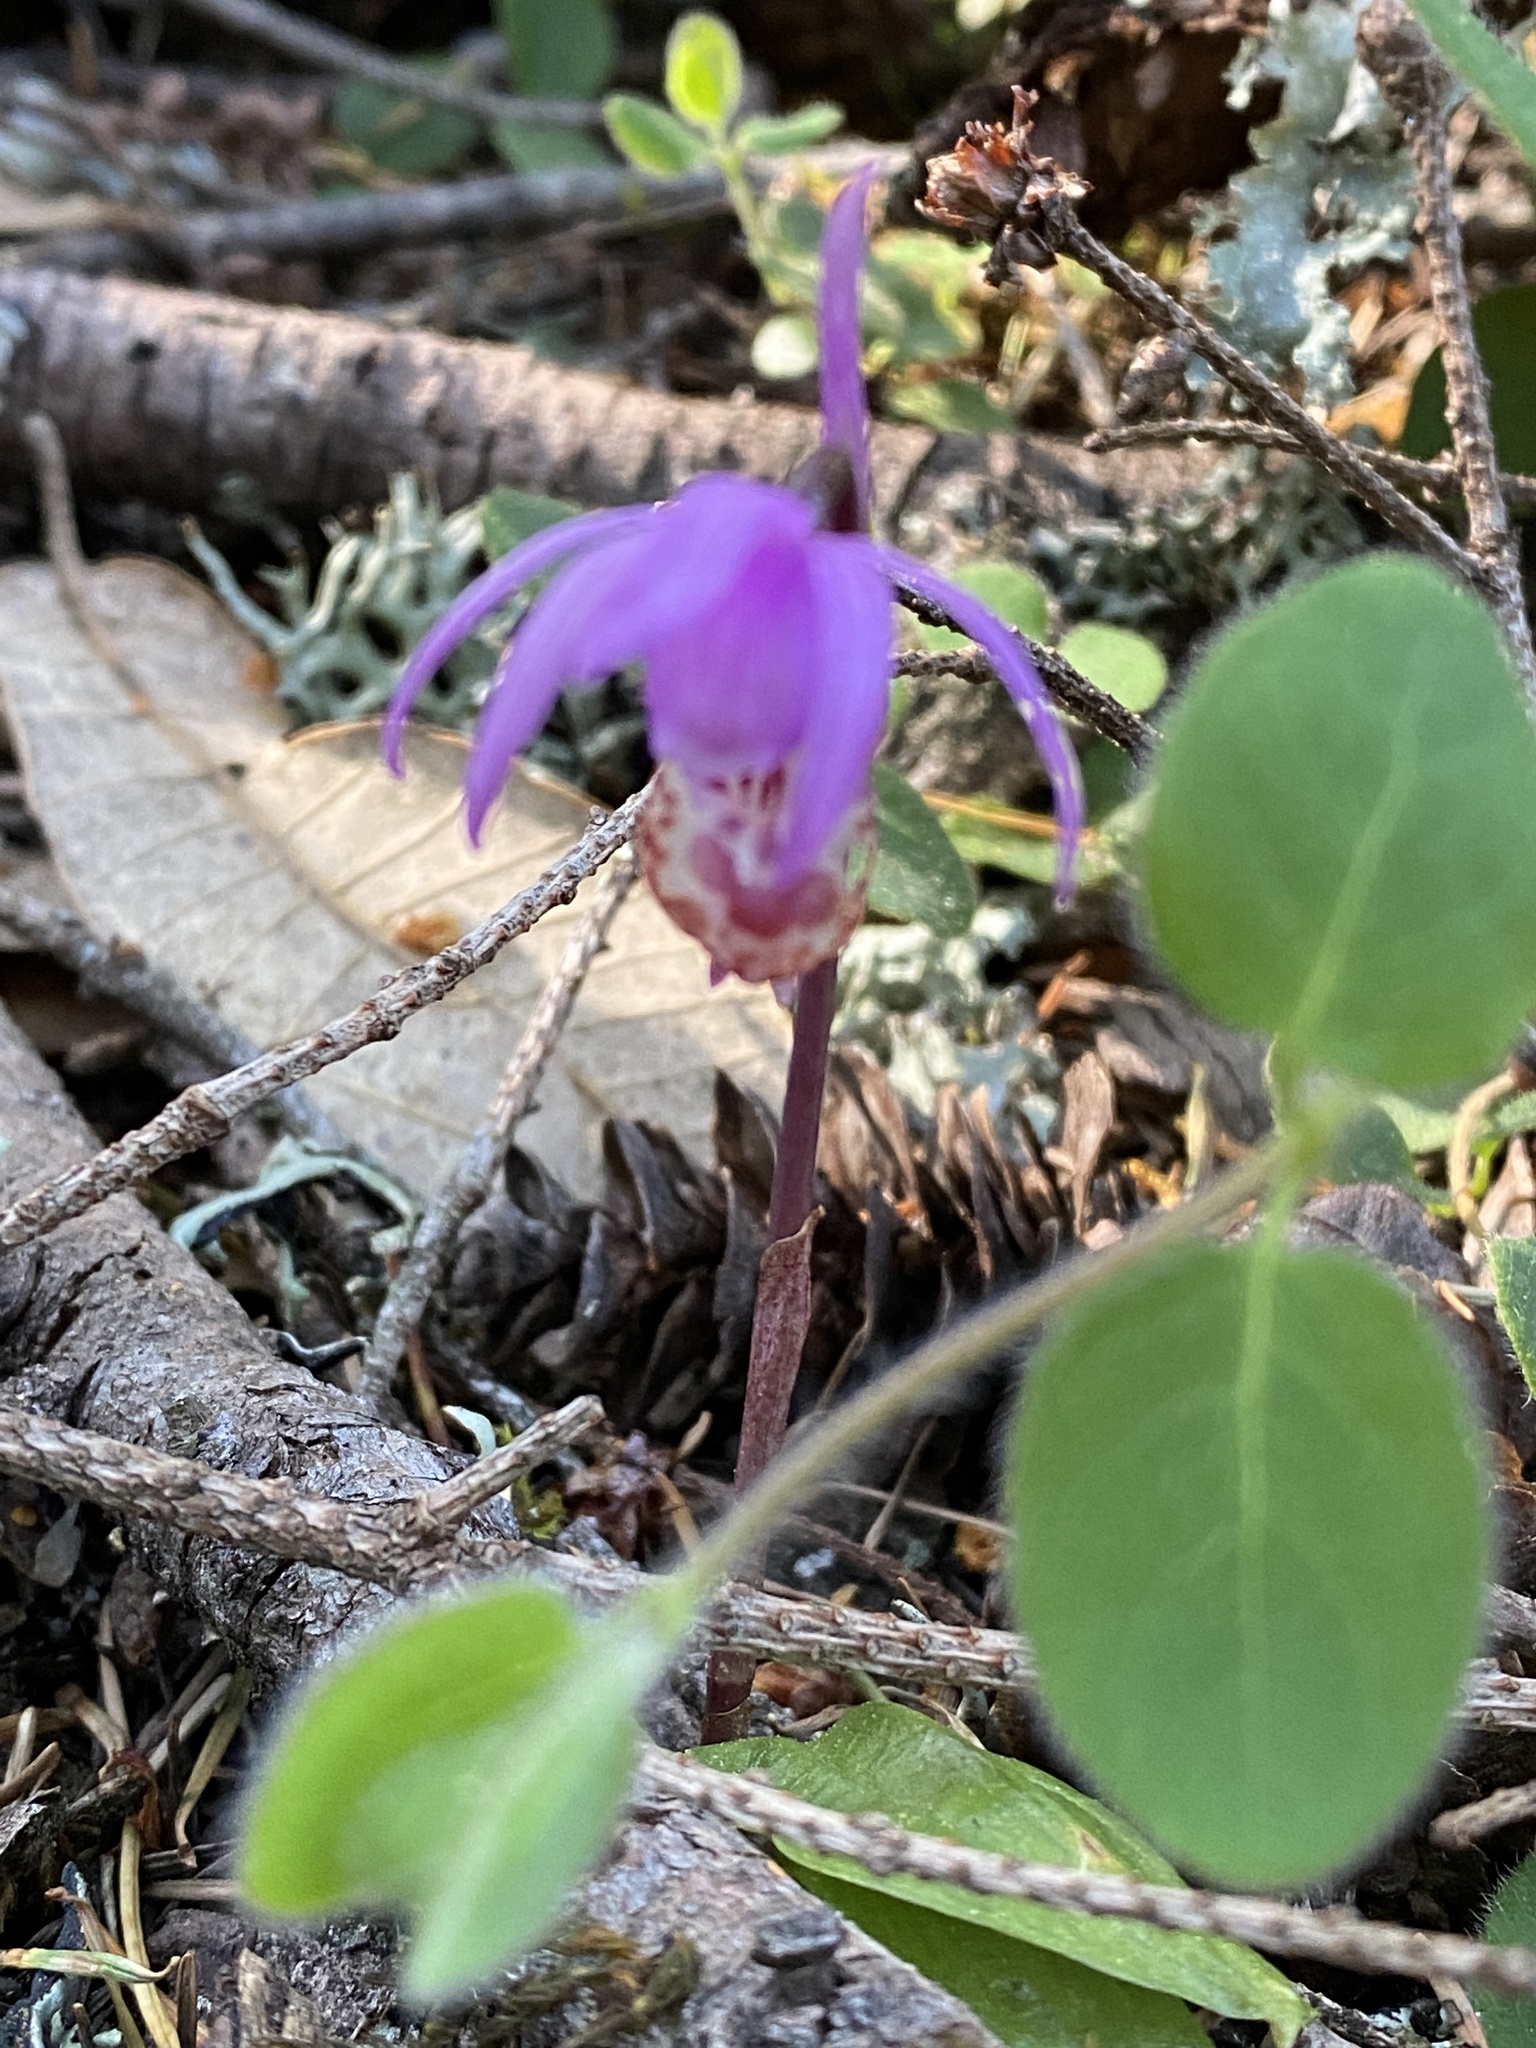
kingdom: Plantae
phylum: Tracheophyta
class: Liliopsida
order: Asparagales
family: Orchidaceae
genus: Calypso
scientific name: Calypso bulbosa
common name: Calypso
